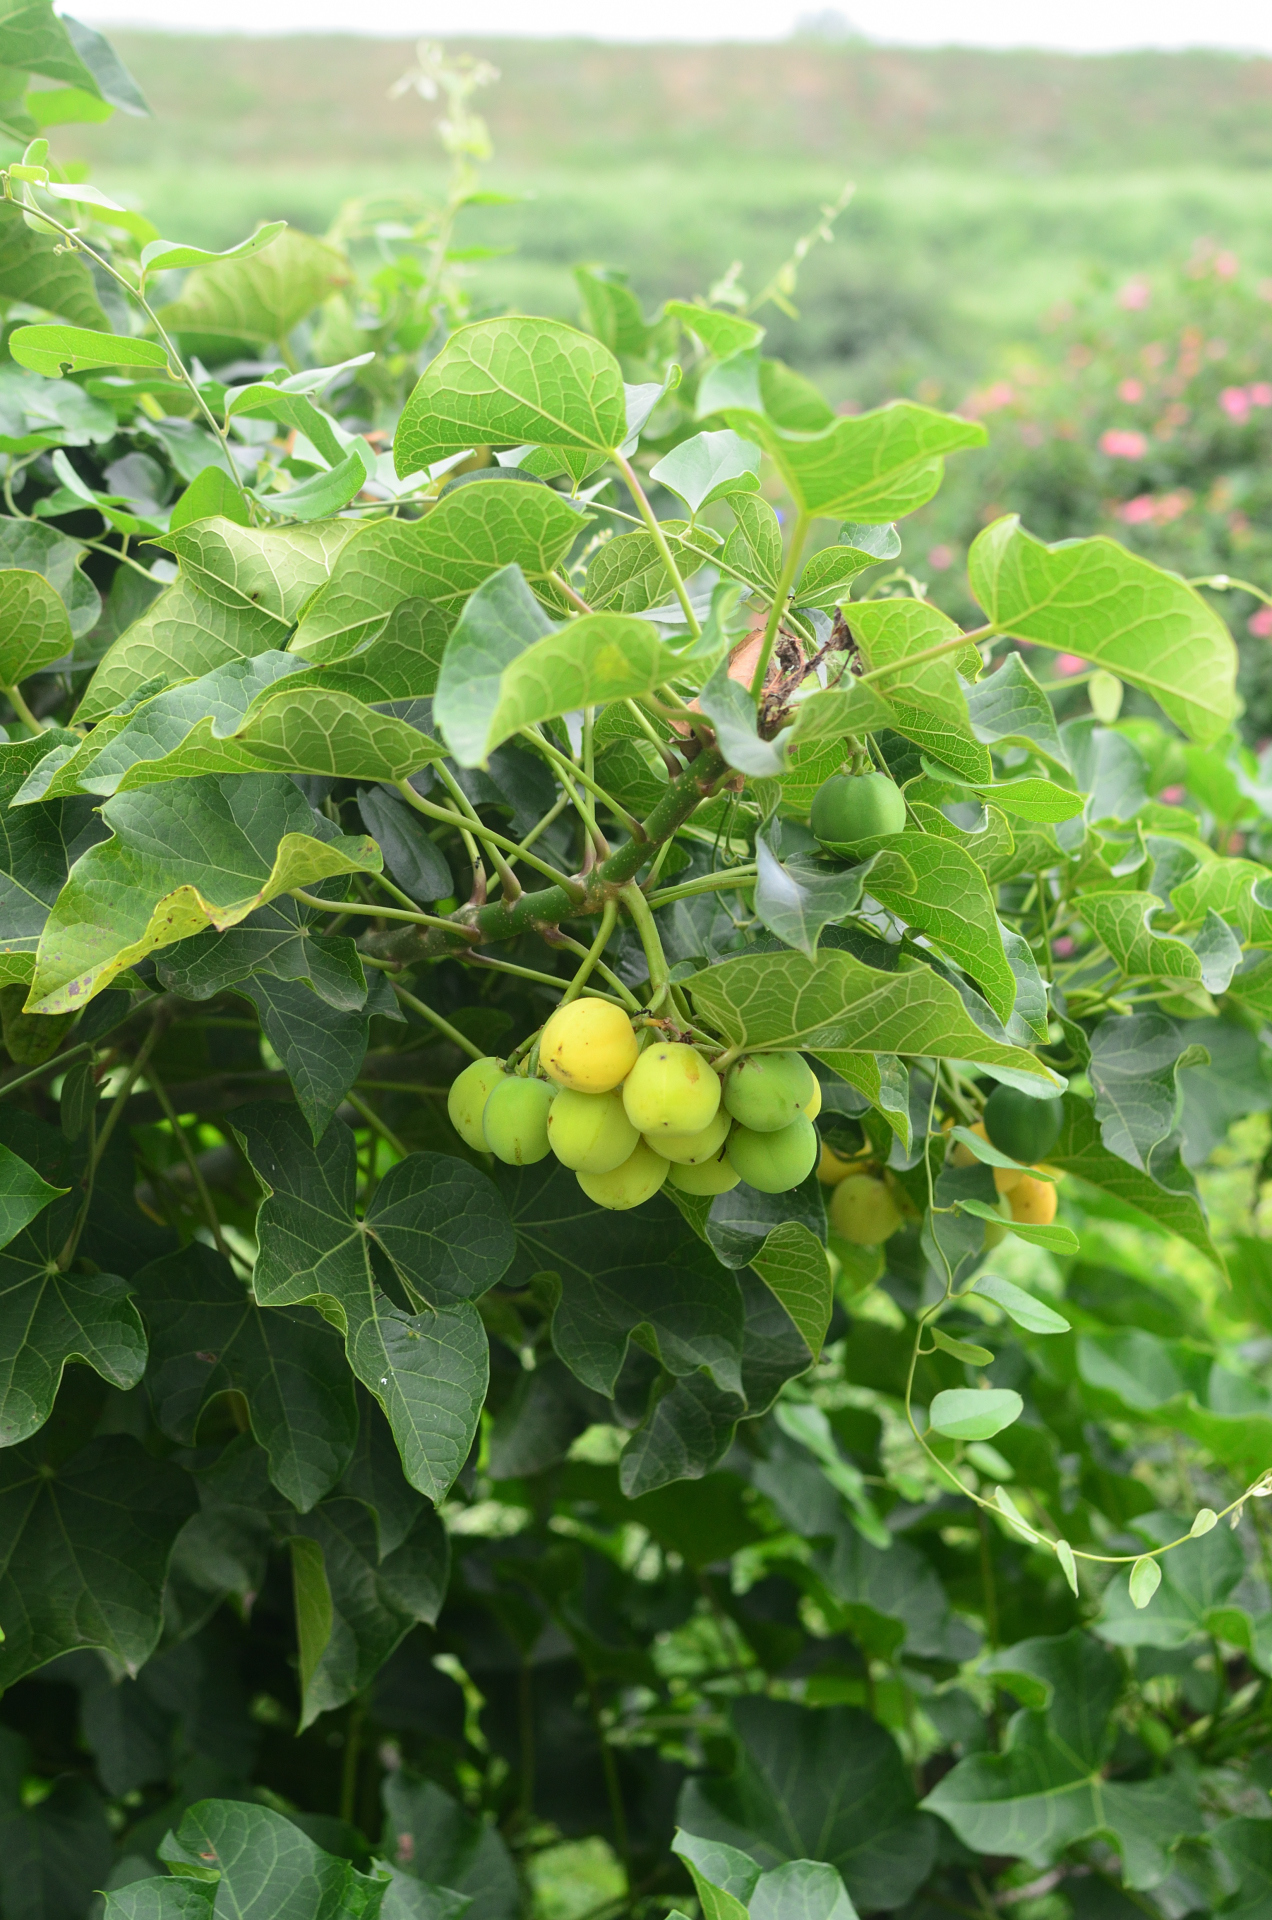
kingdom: Plantae
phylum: Tracheophyta
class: Magnoliopsida
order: Malpighiales
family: Euphorbiaceae
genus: Jatropha
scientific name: Jatropha curcas
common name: Barbados nut
